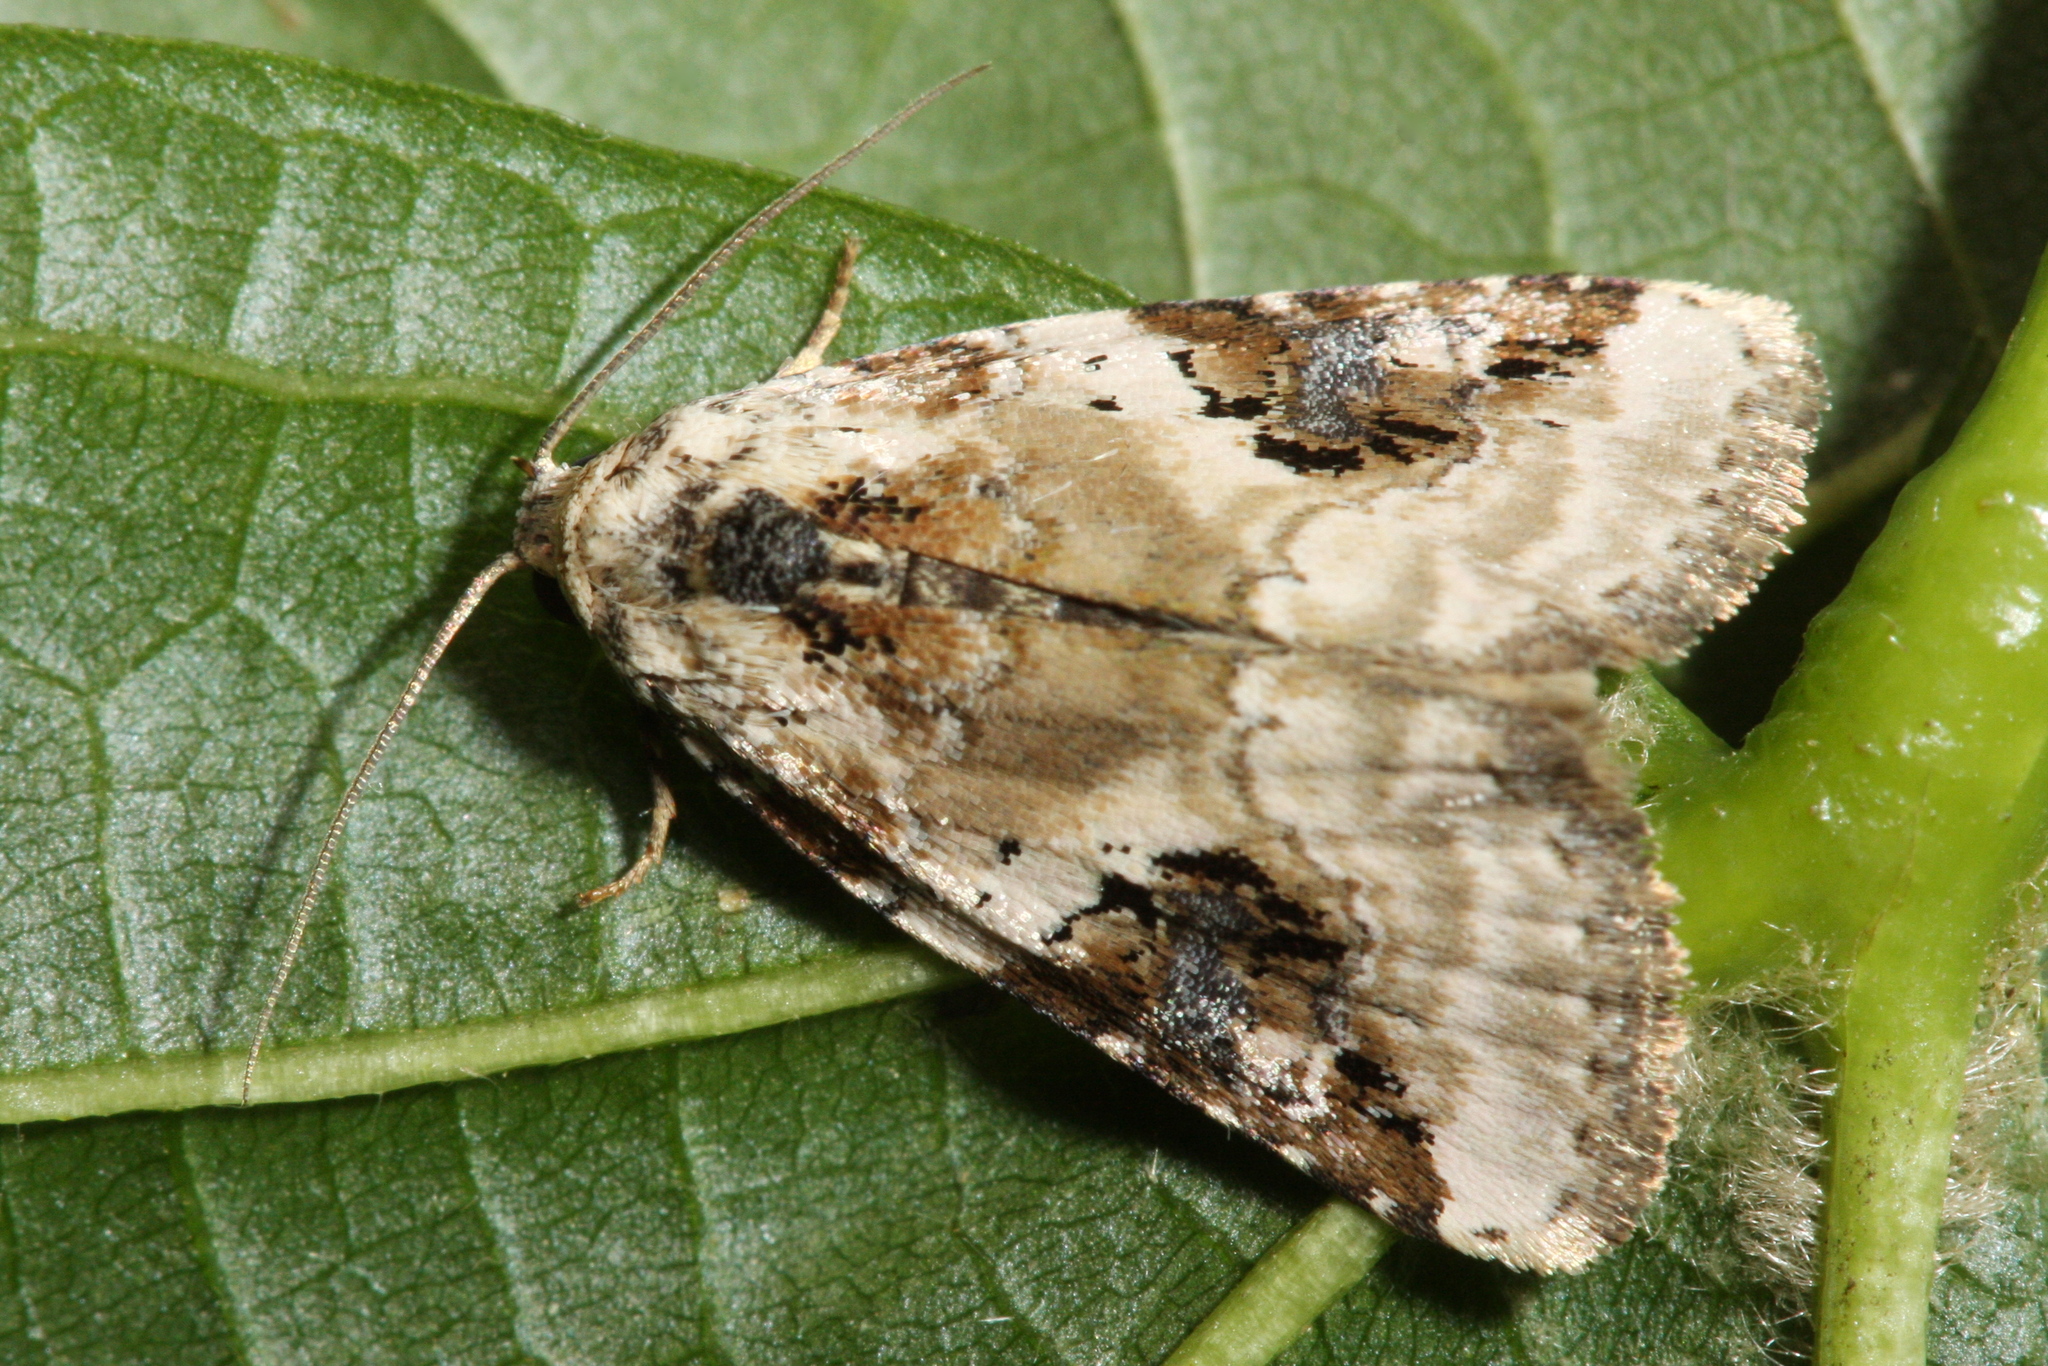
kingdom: Animalia
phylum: Arthropoda
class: Insecta
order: Lepidoptera
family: Noctuidae
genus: Pseudeustrotia
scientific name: Pseudeustrotia candidula
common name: Shining marbled
